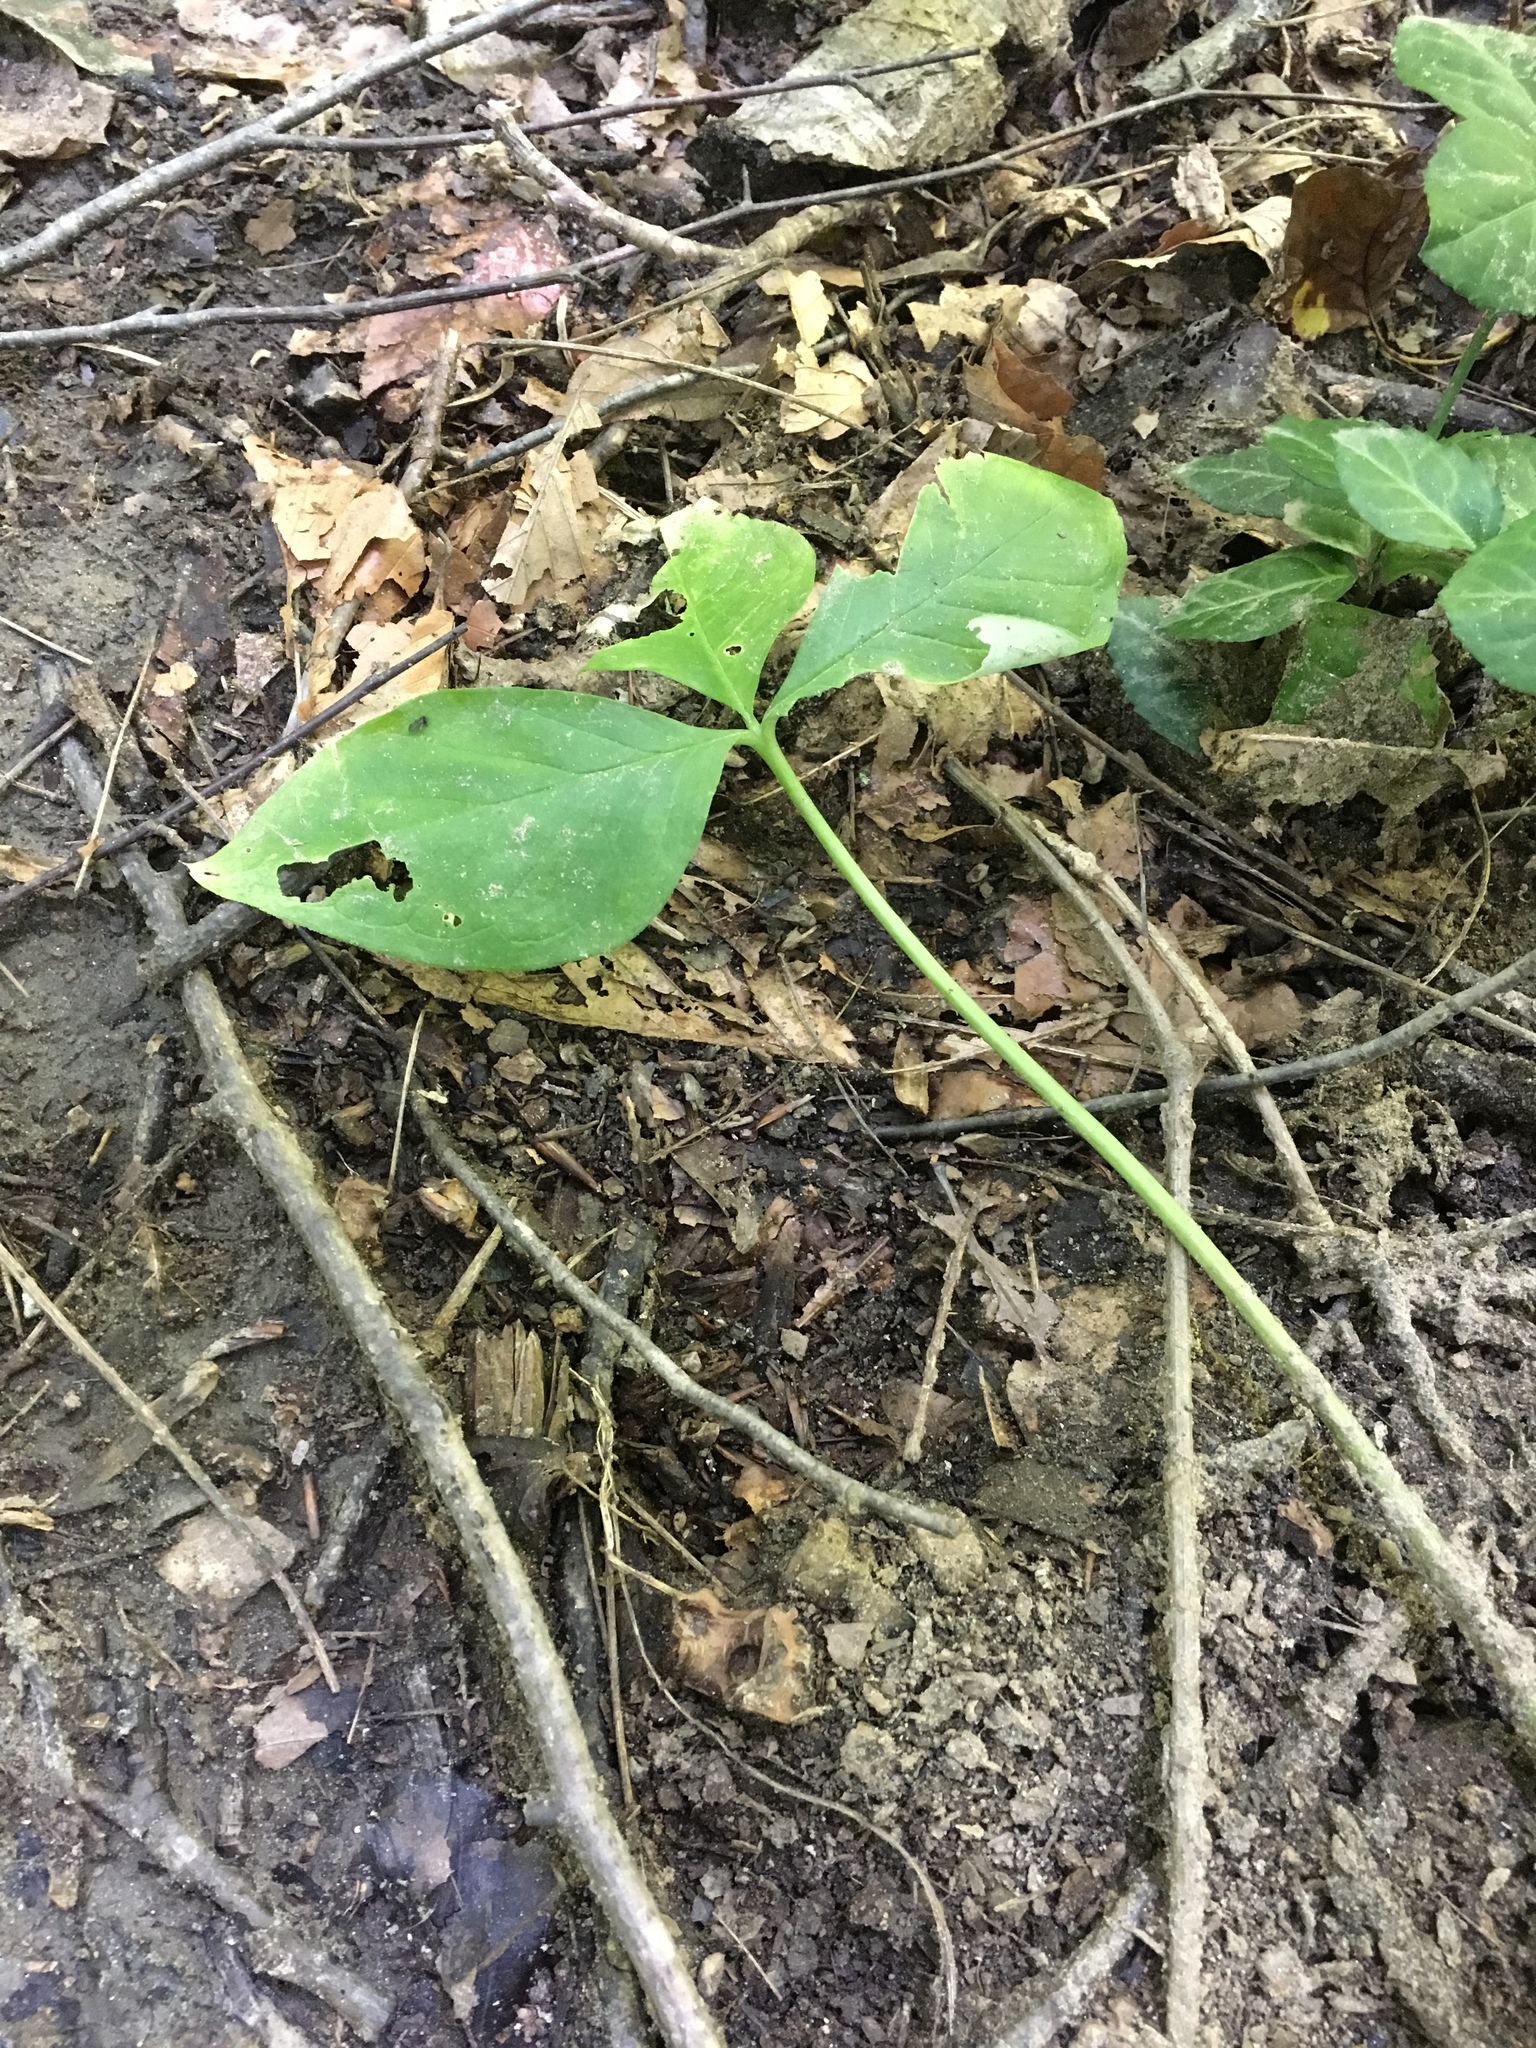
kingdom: Plantae
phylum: Tracheophyta
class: Liliopsida
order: Alismatales
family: Araceae
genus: Arisaema
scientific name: Arisaema triphyllum
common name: Jack-in-the-pulpit
